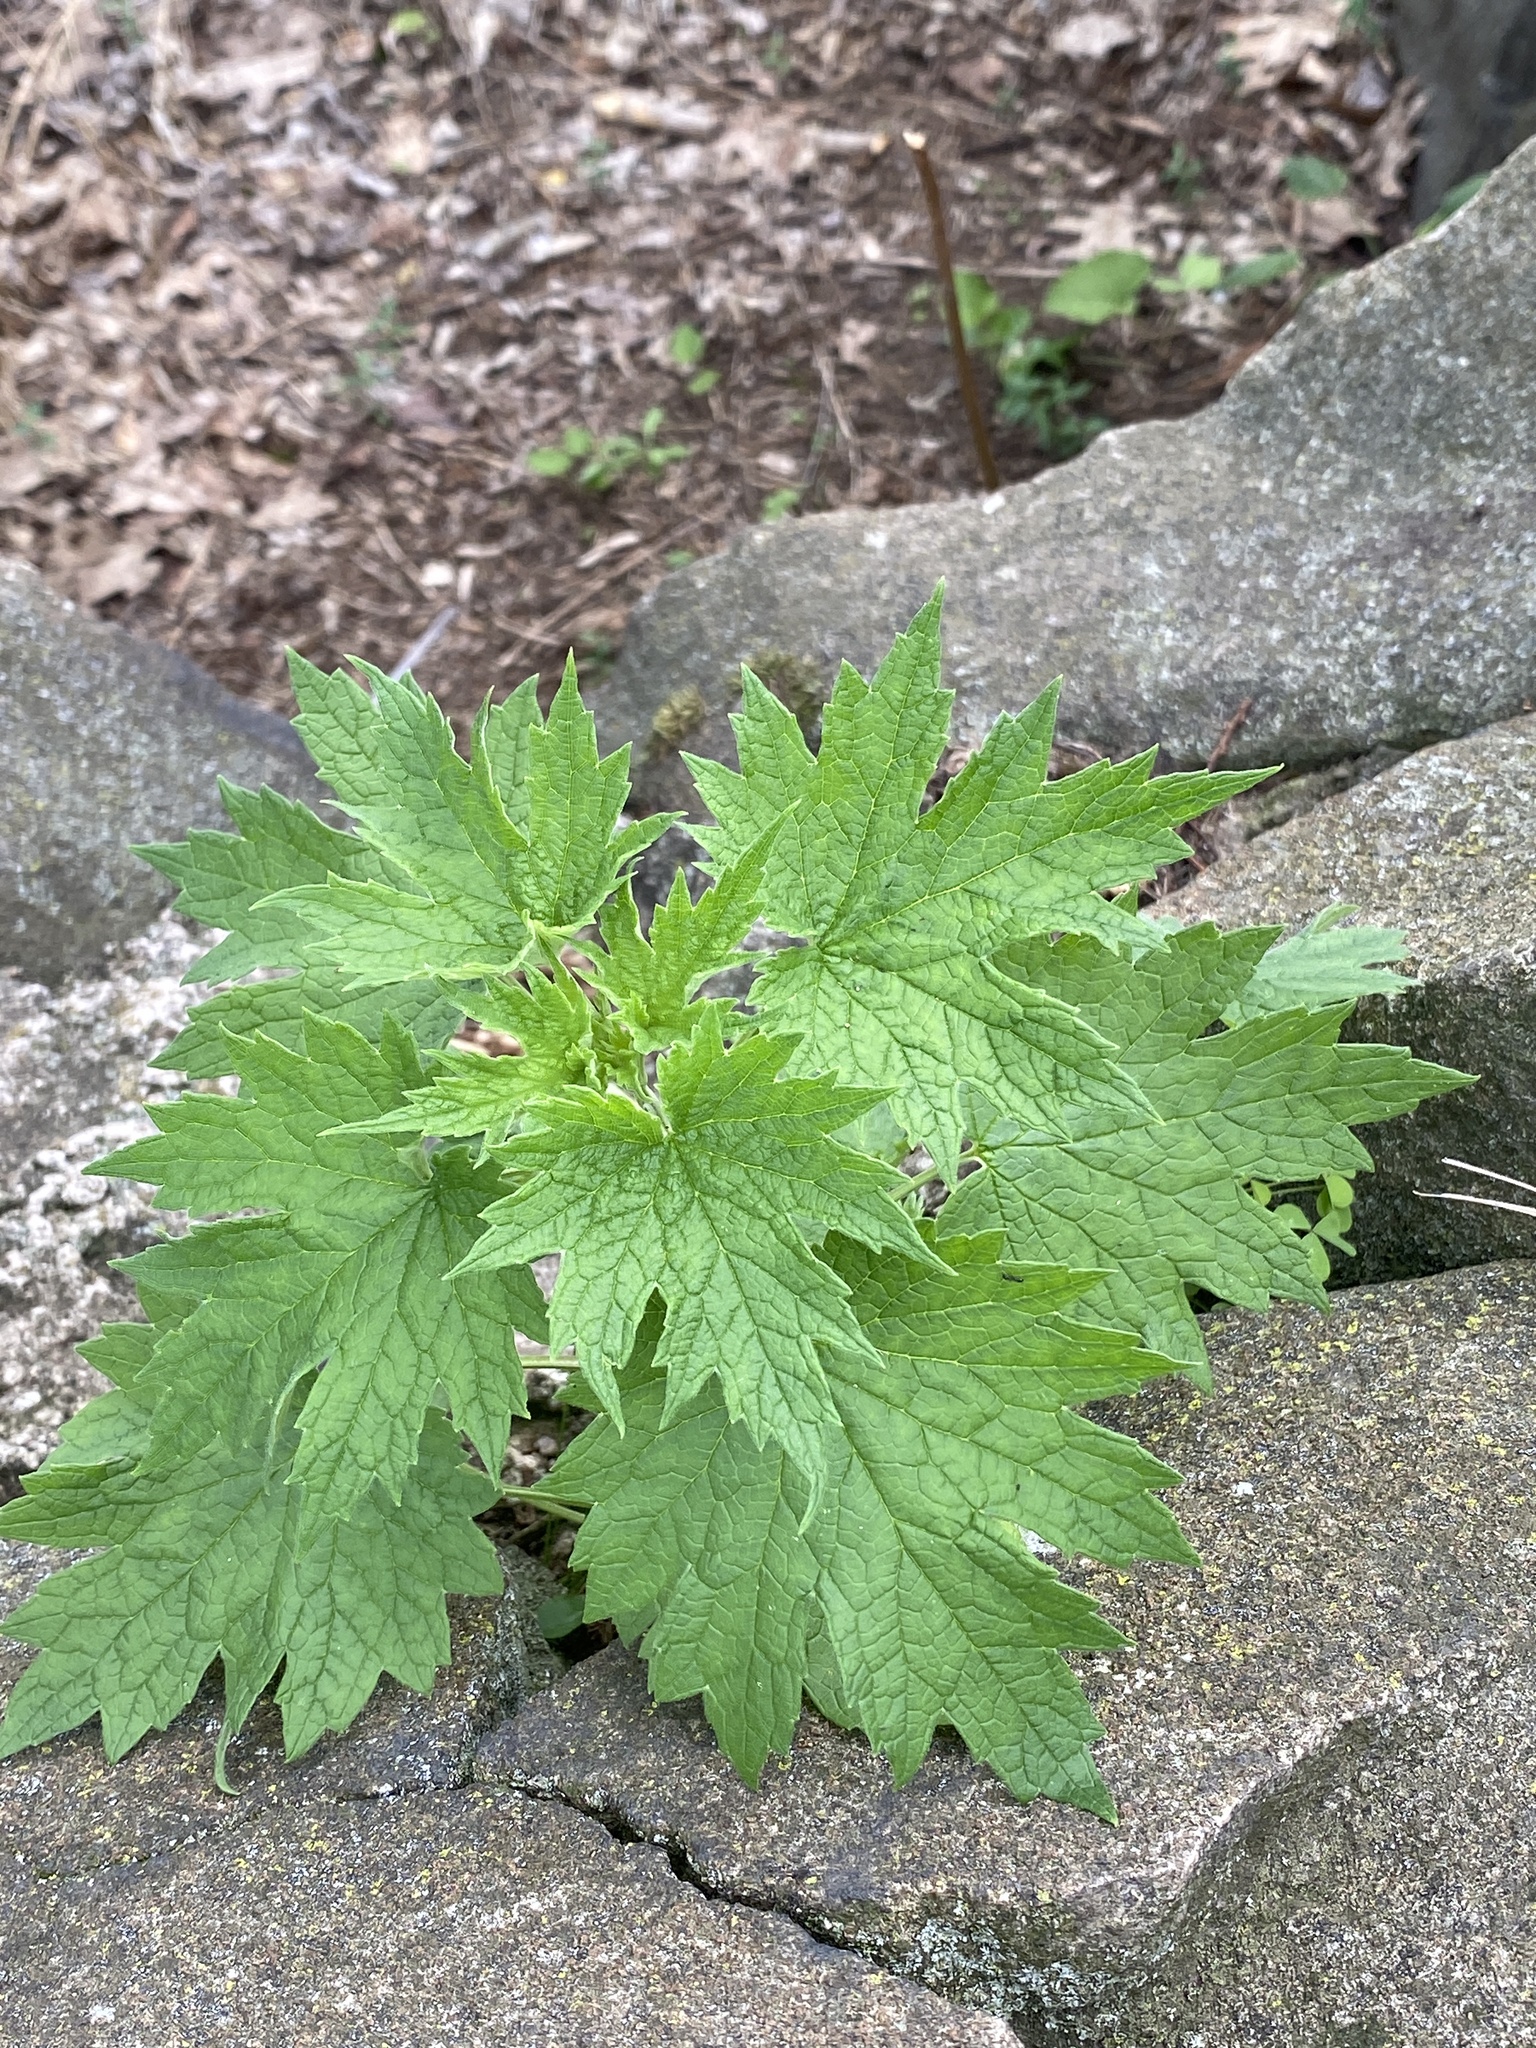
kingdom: Plantae
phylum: Tracheophyta
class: Magnoliopsida
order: Lamiales
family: Lamiaceae
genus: Leonurus
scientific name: Leonurus cardiaca
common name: Motherwort
